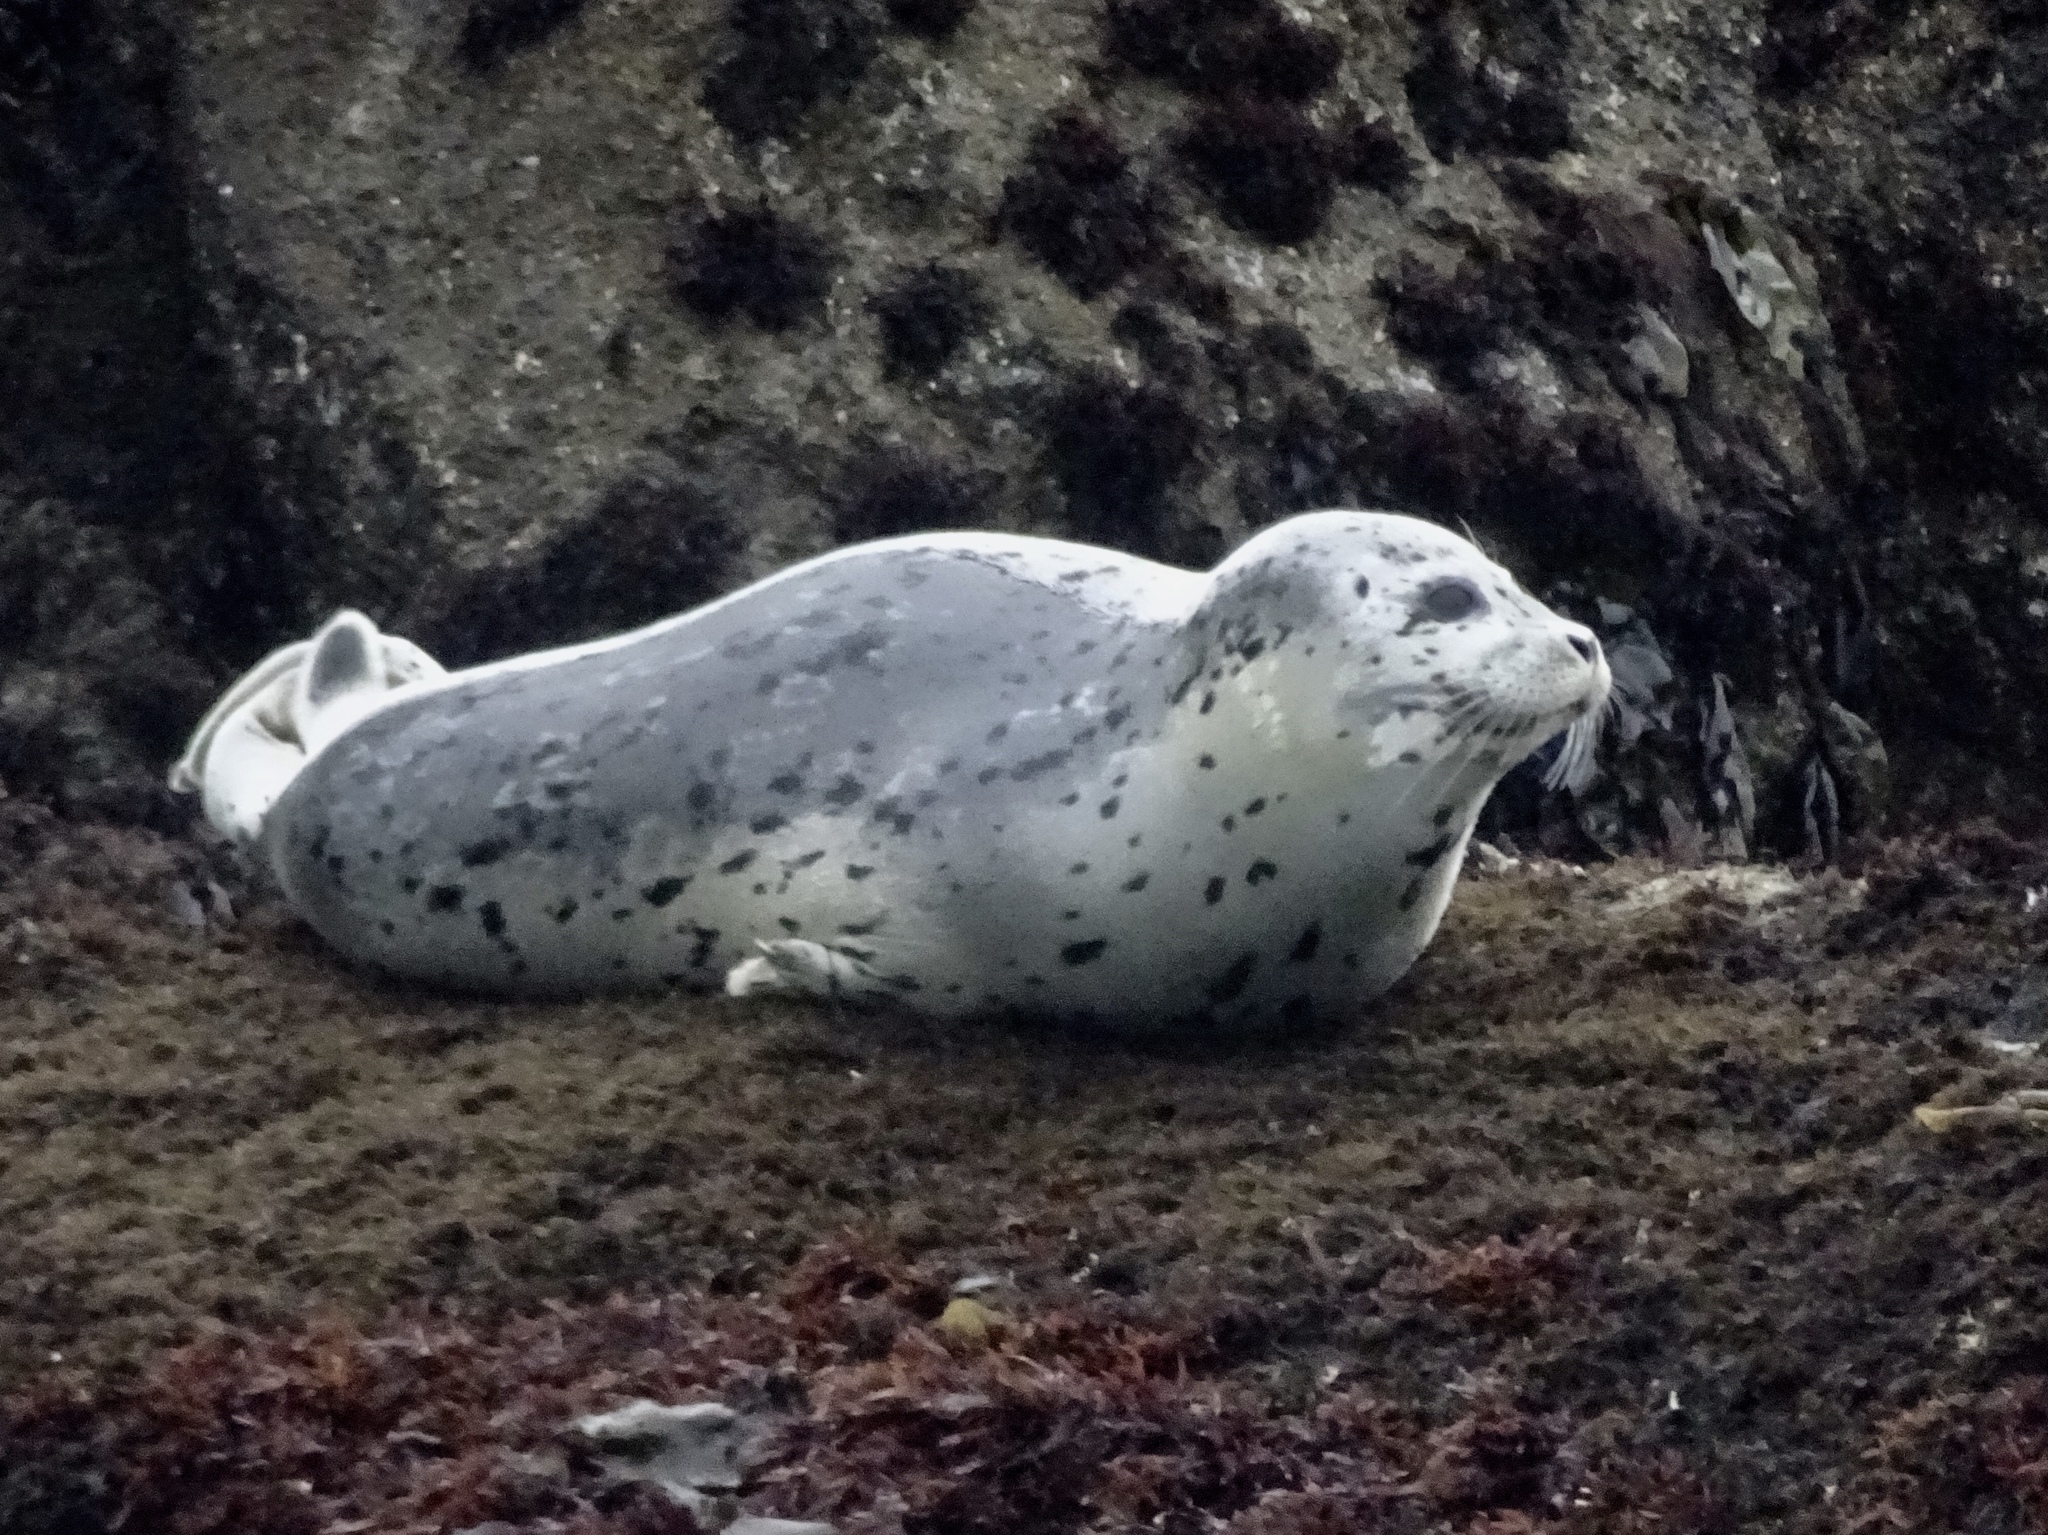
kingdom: Animalia
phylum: Chordata
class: Mammalia
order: Carnivora
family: Phocidae
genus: Phoca
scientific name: Phoca vitulina
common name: Harbor seal
